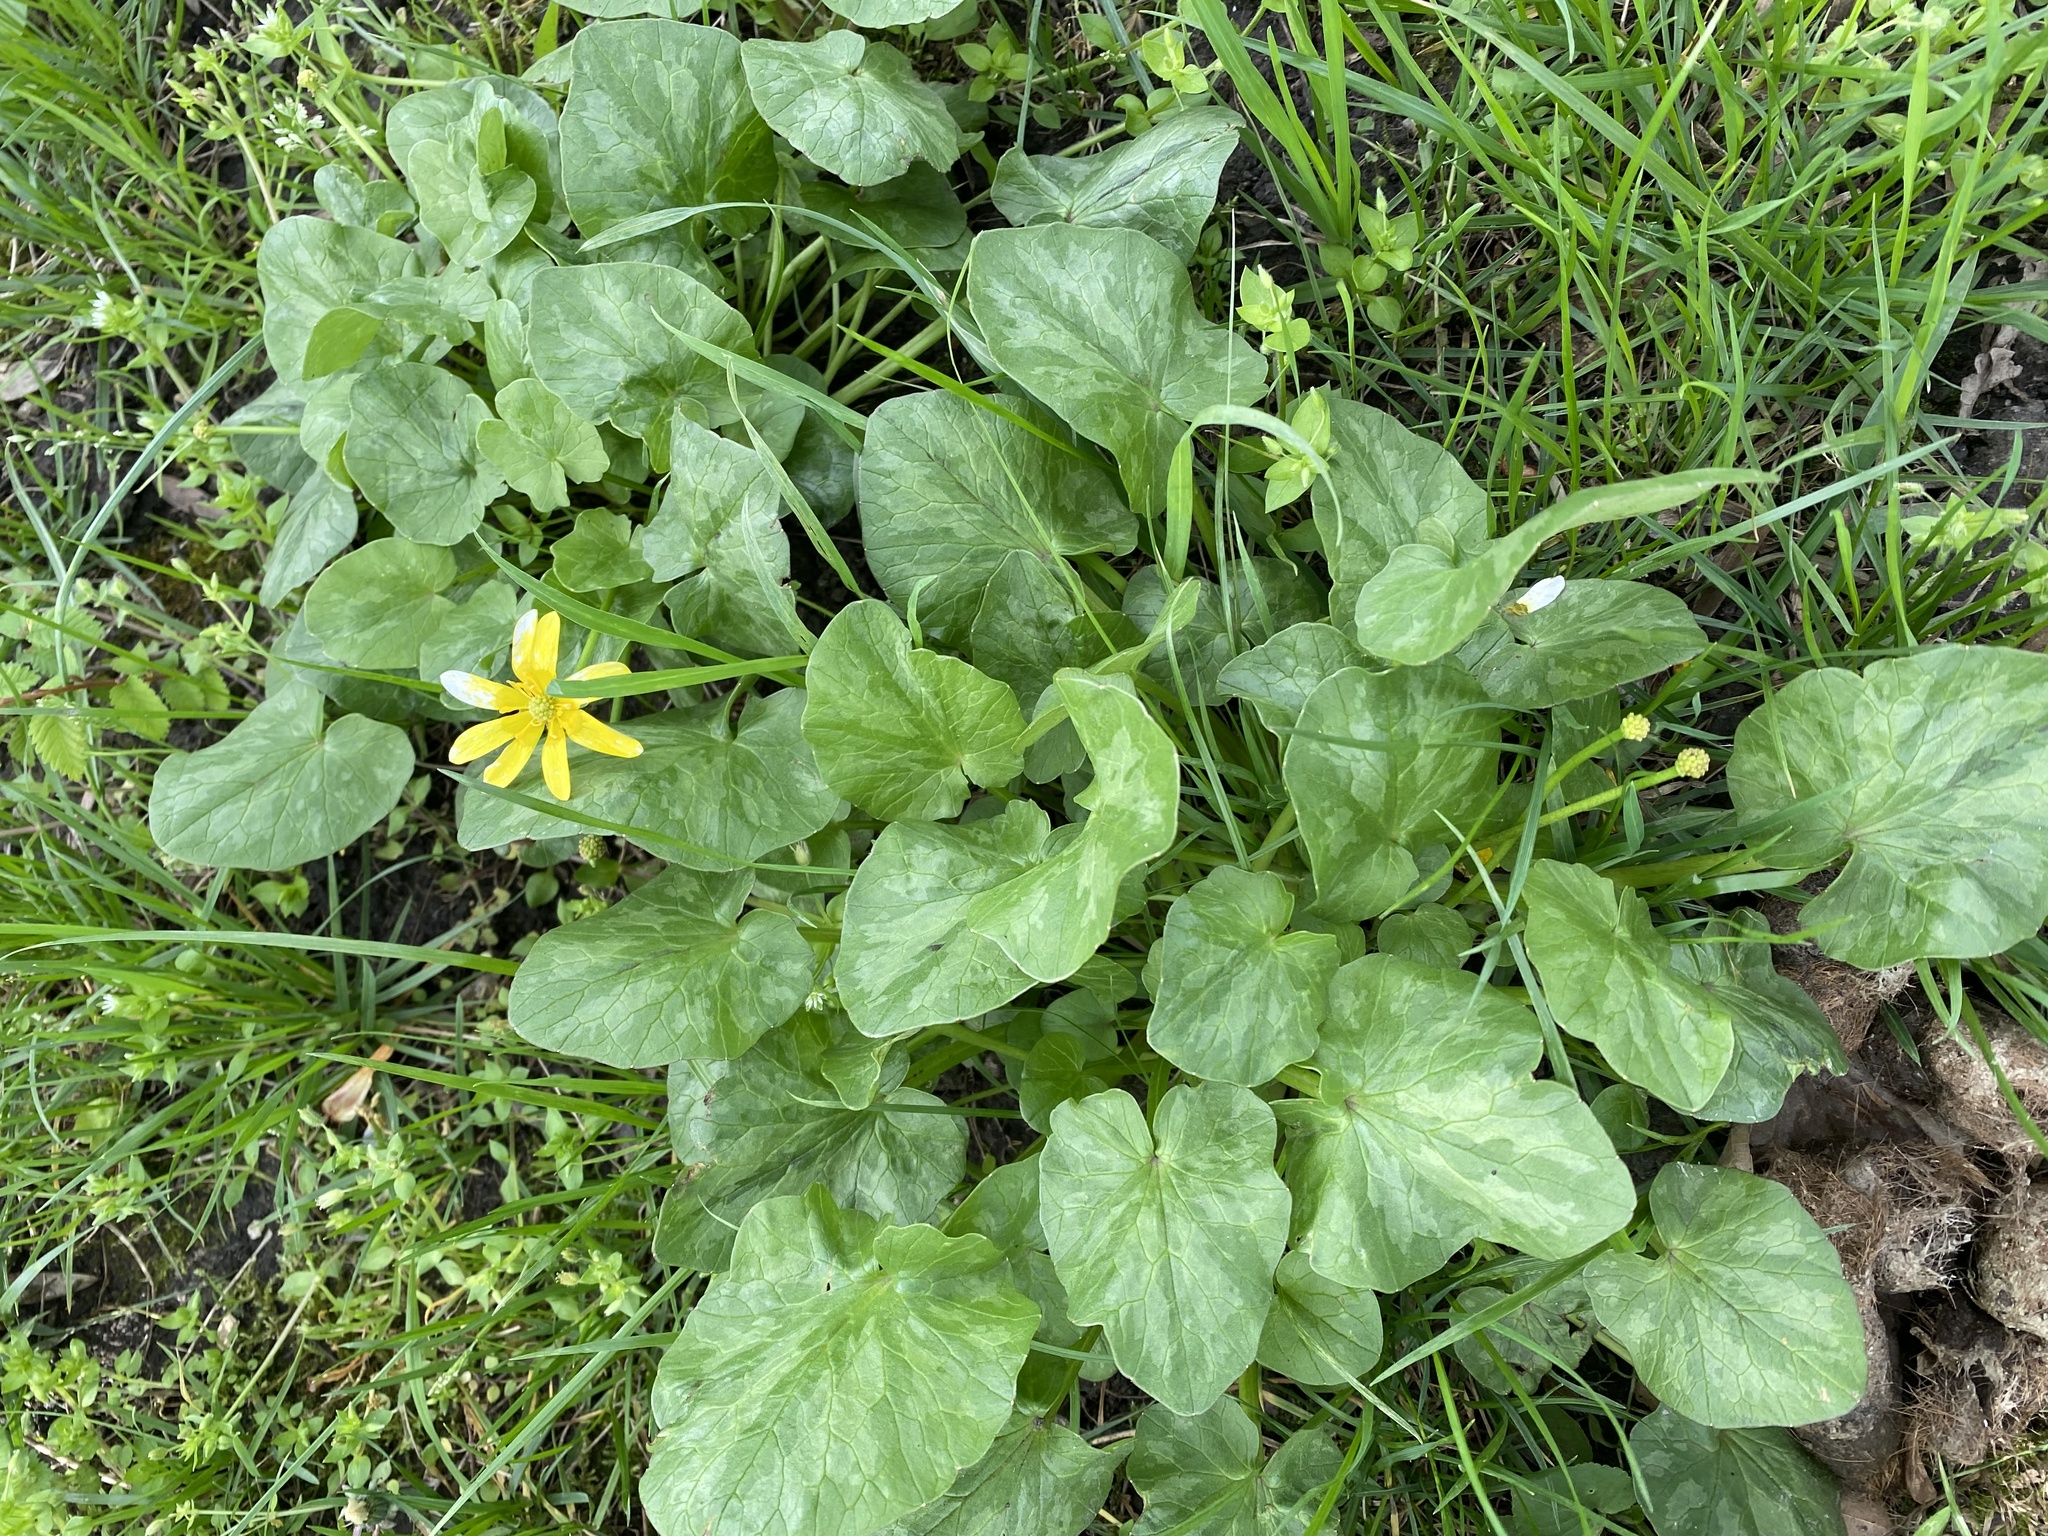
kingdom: Plantae
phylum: Tracheophyta
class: Magnoliopsida
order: Ranunculales
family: Ranunculaceae
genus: Ficaria
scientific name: Ficaria verna
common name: Lesser celandine
